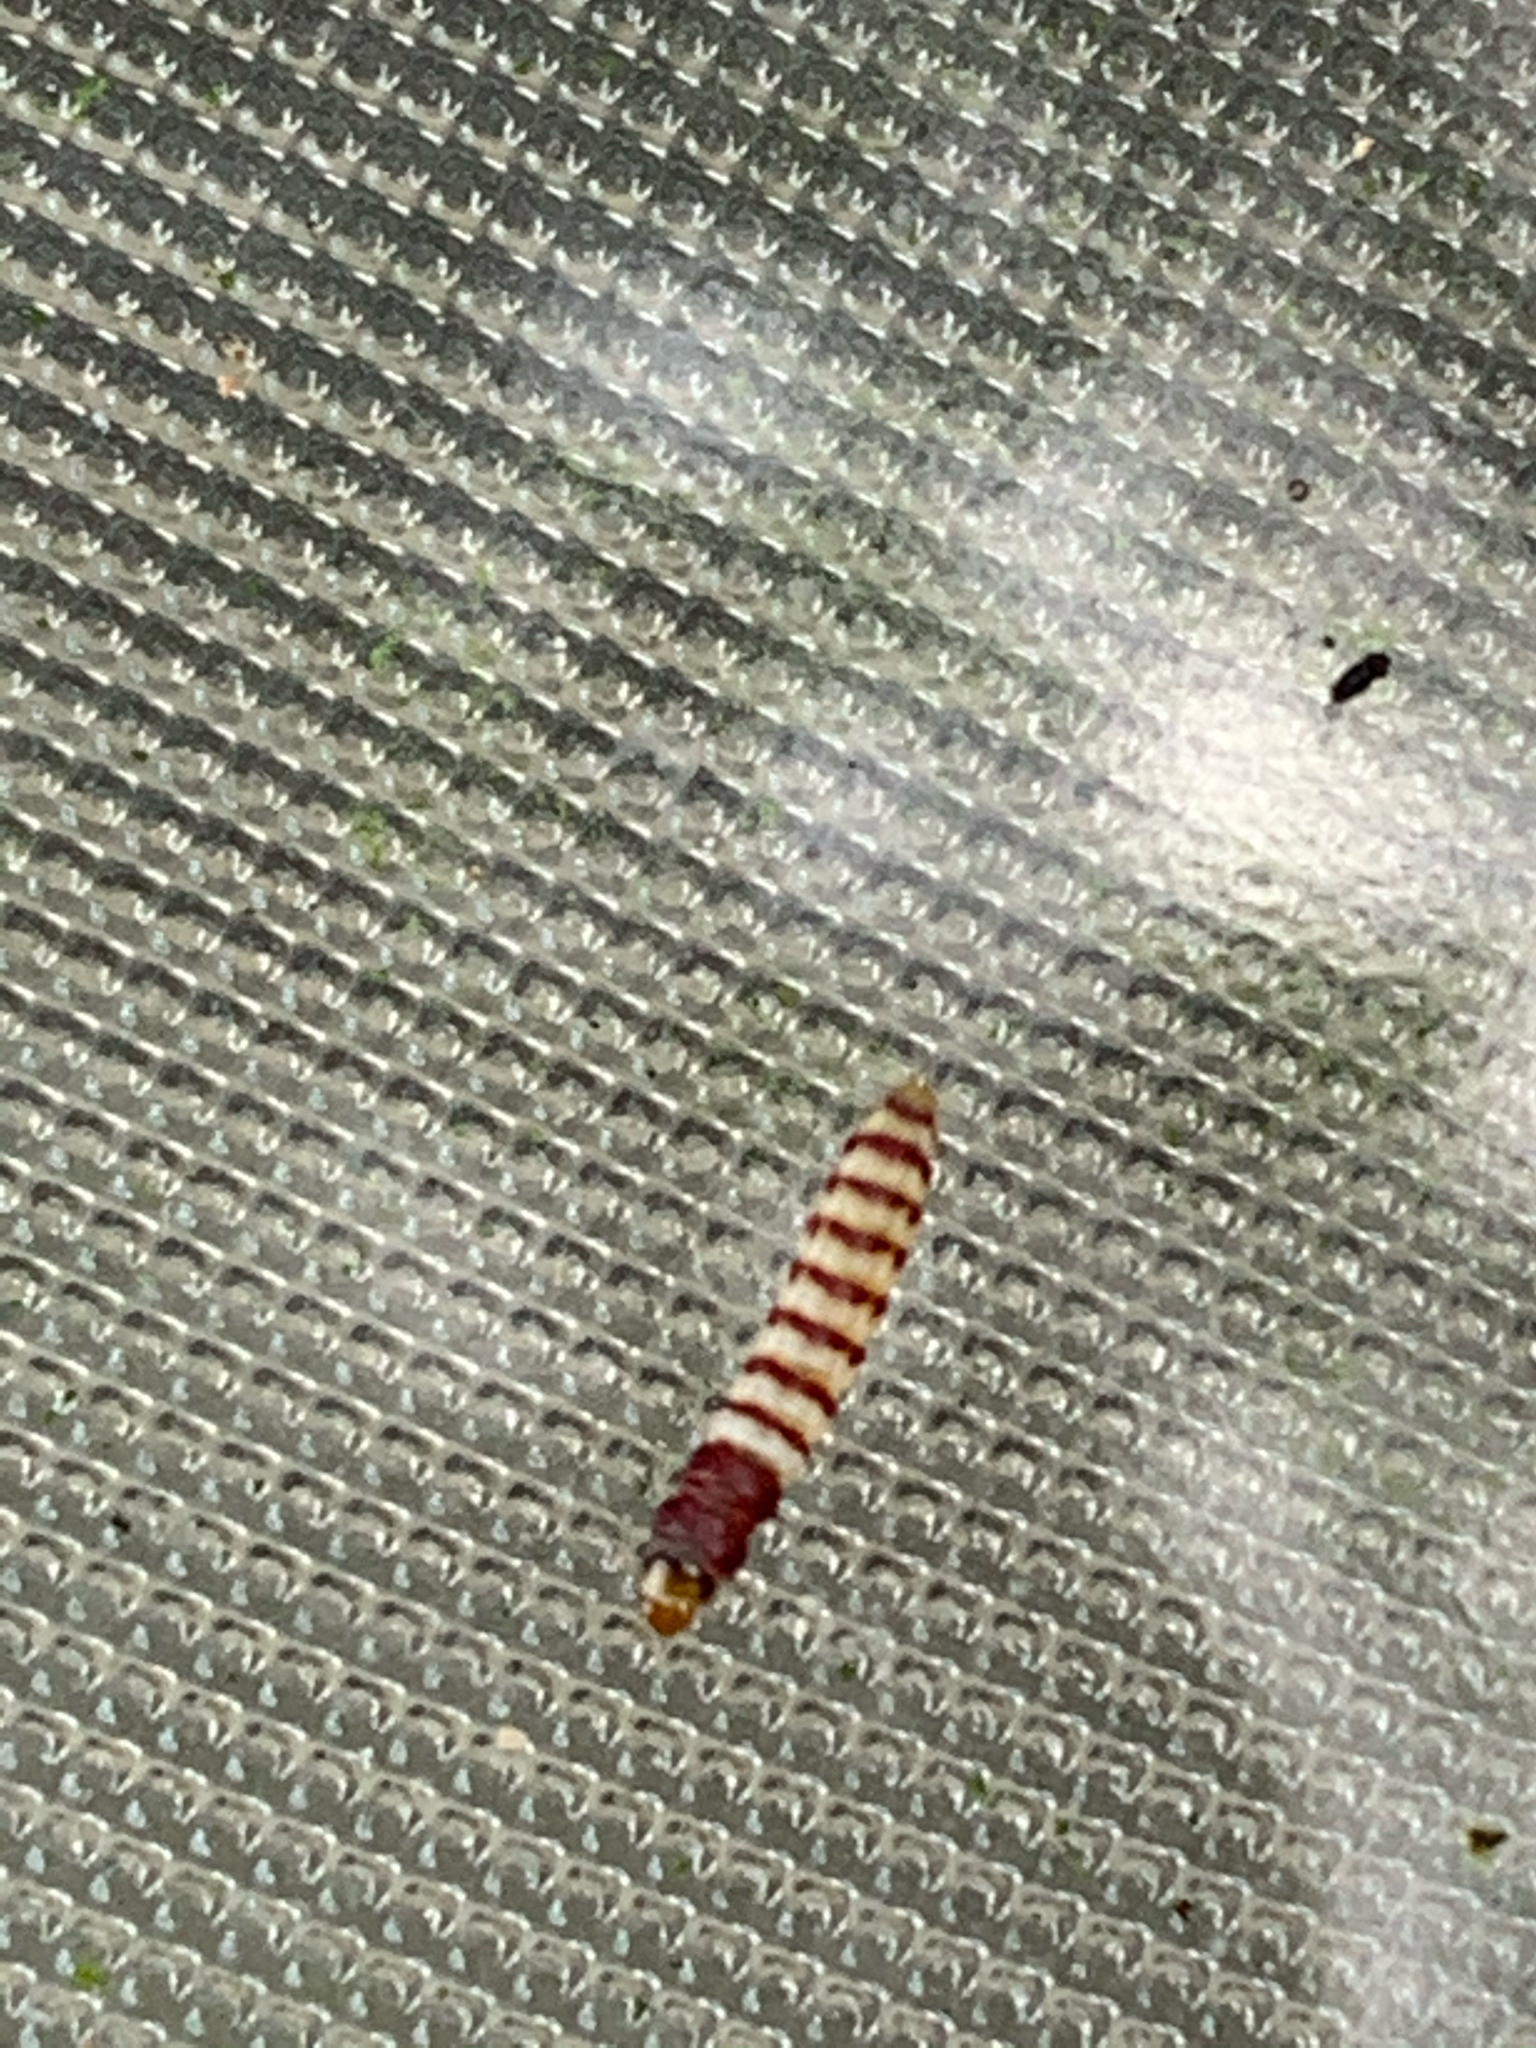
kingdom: Animalia
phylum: Arthropoda
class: Insecta
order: Lepidoptera
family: Gelechiidae
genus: Arogalea
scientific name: Arogalea cristifasciella
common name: White stripe-backed moth
